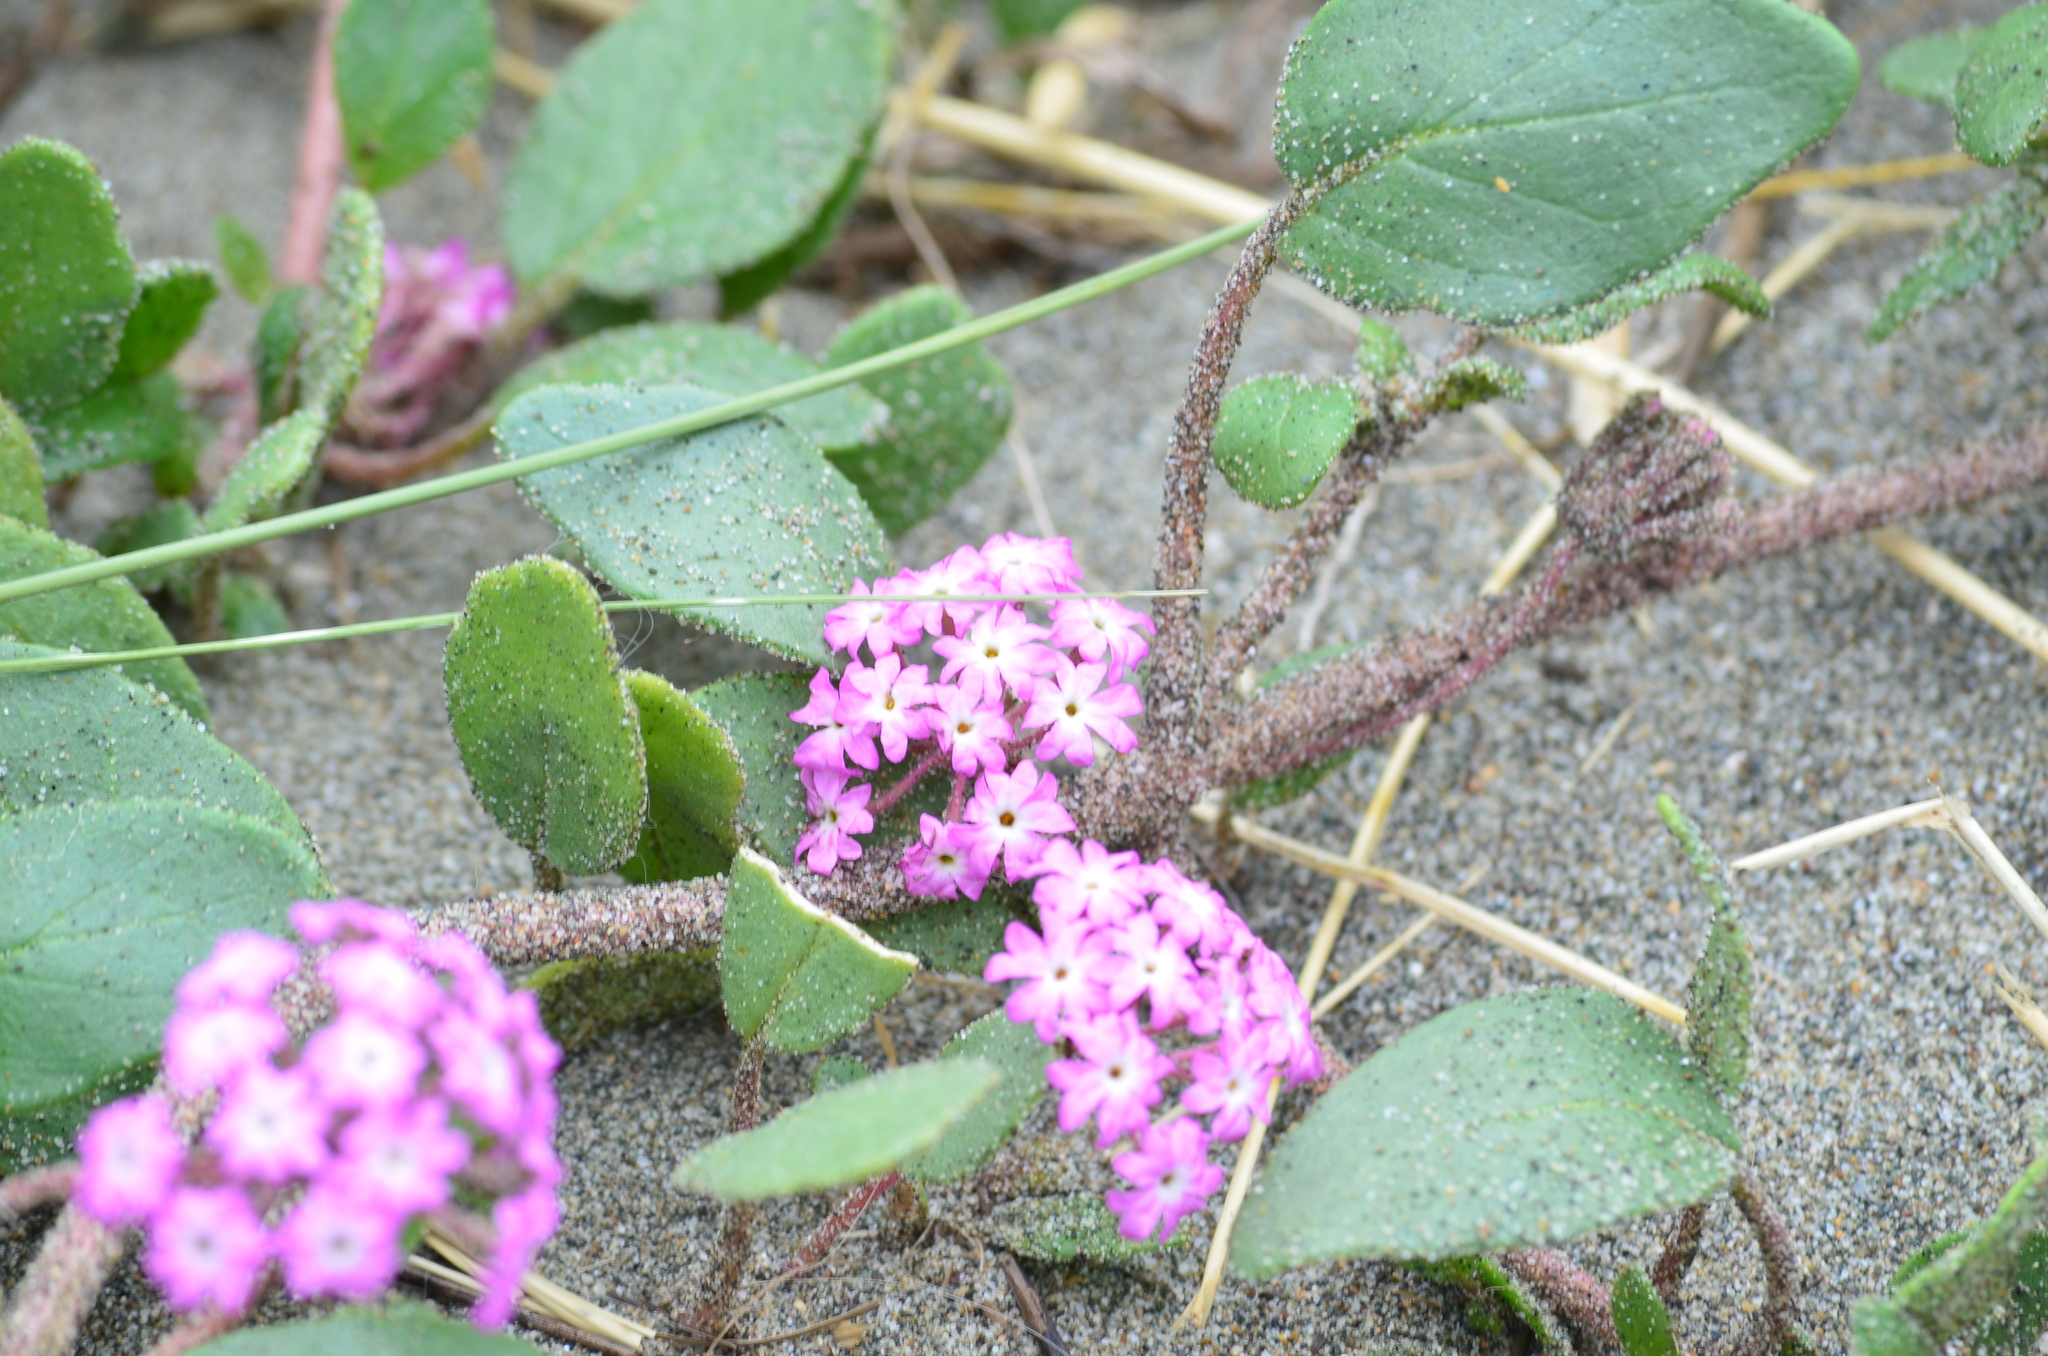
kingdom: Plantae
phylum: Tracheophyta
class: Magnoliopsida
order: Caryophyllales
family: Nyctaginaceae
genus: Abronia
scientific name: Abronia umbellata
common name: Sand-verbena
